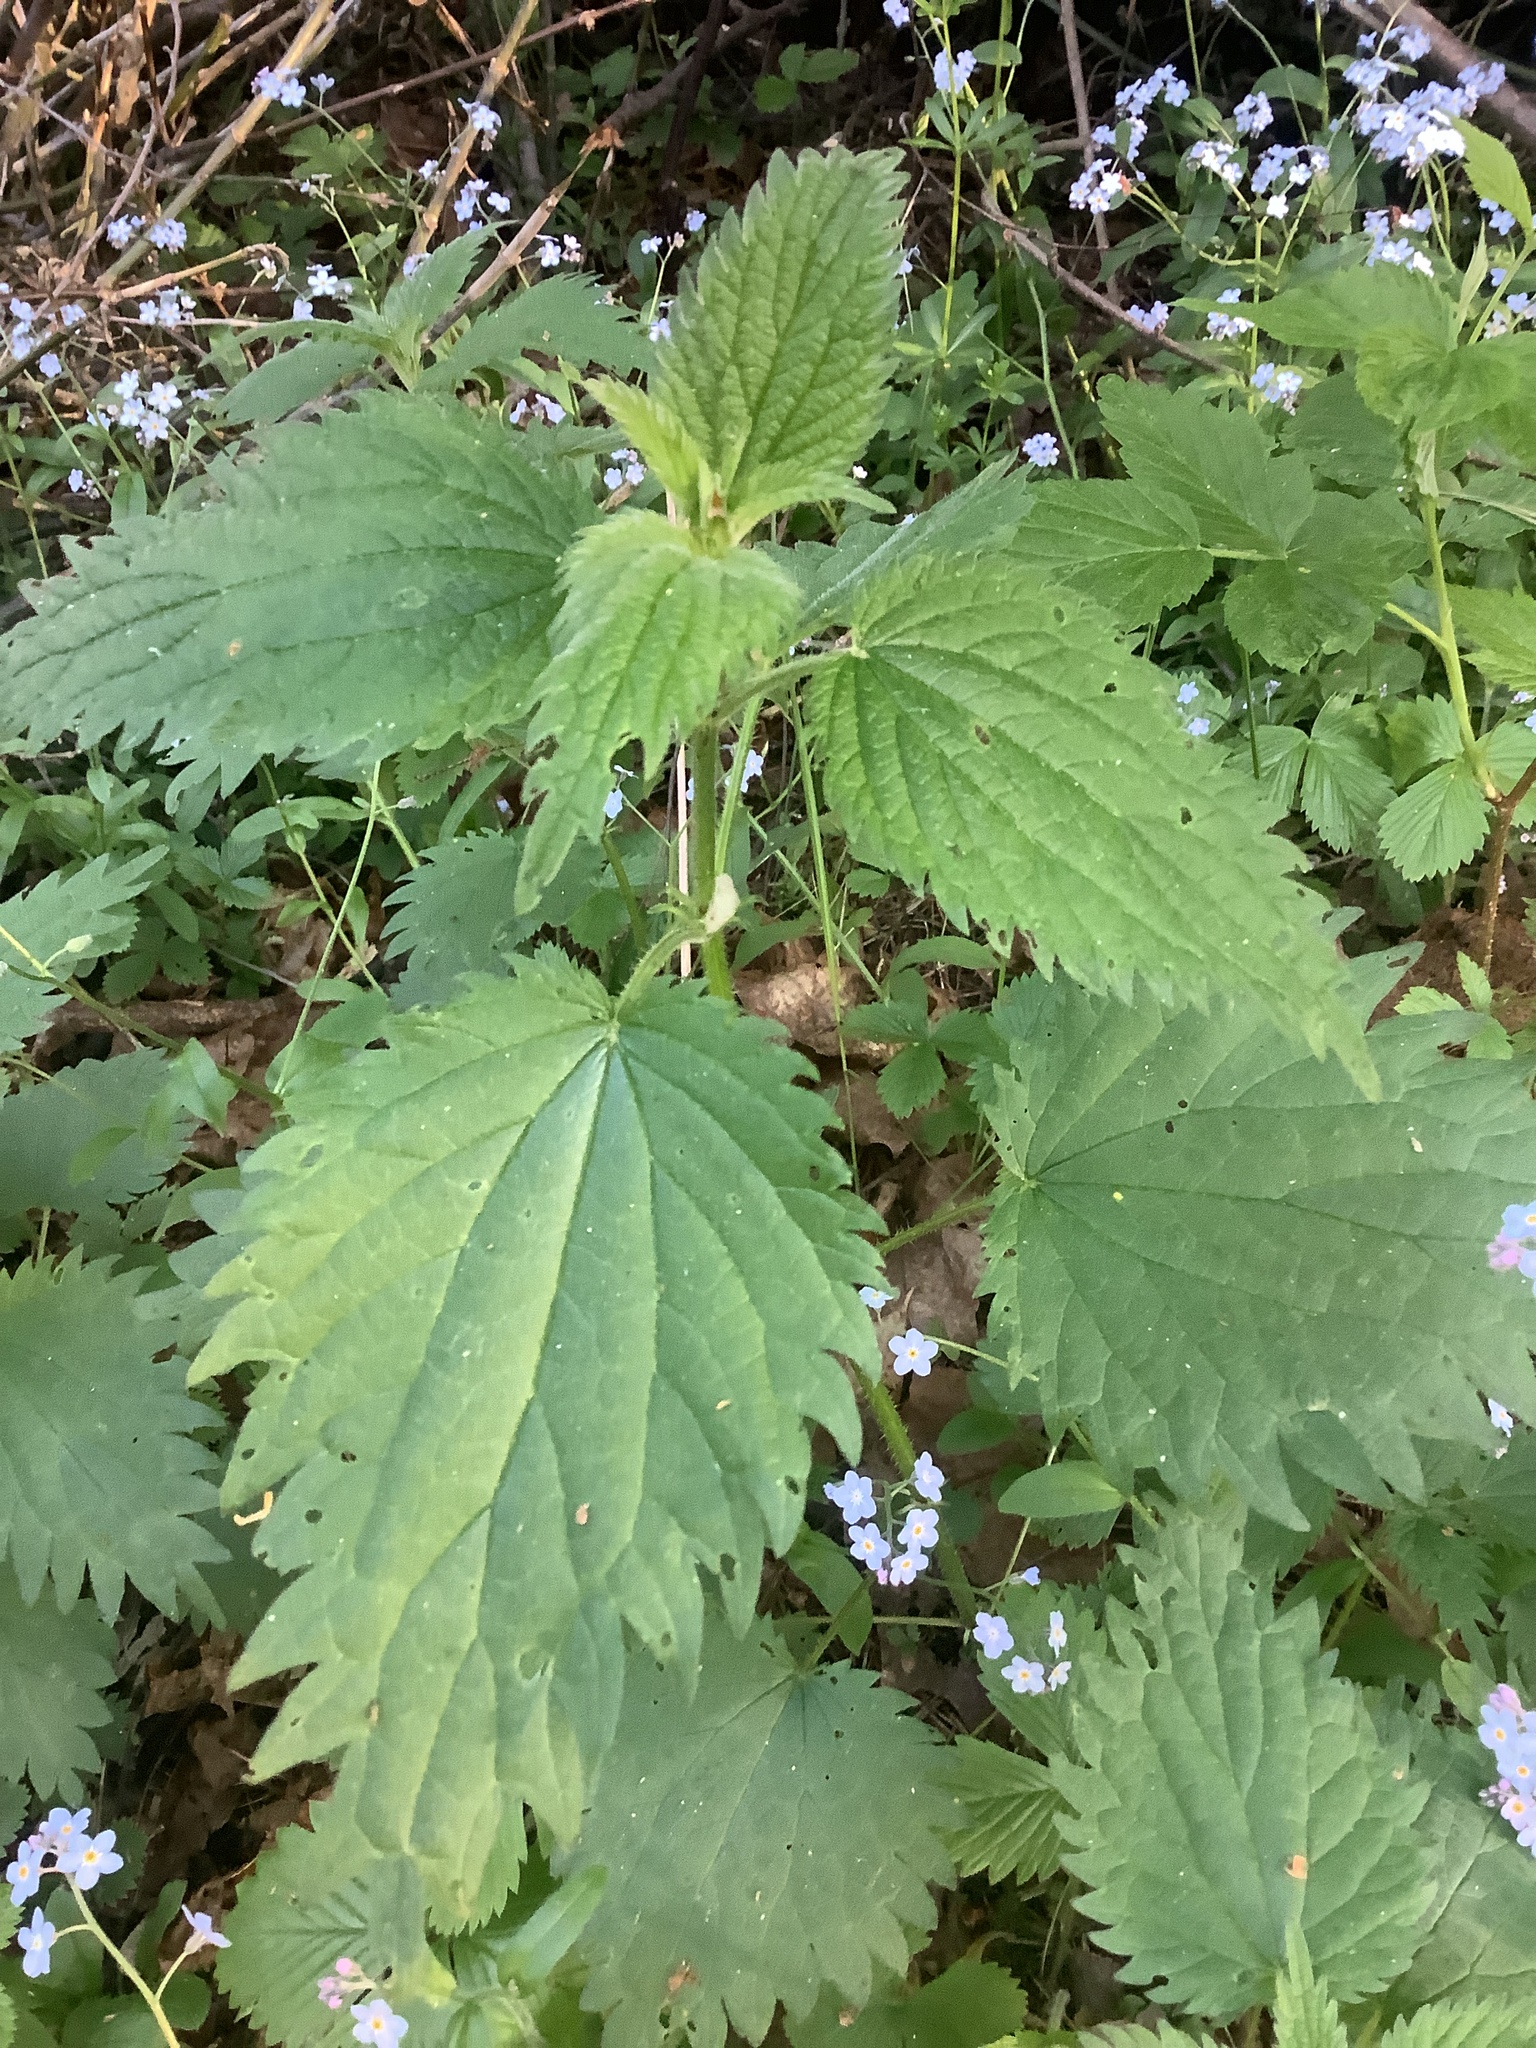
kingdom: Plantae
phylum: Tracheophyta
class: Magnoliopsida
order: Rosales
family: Urticaceae
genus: Urtica
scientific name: Urtica dioica
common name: Common nettle
